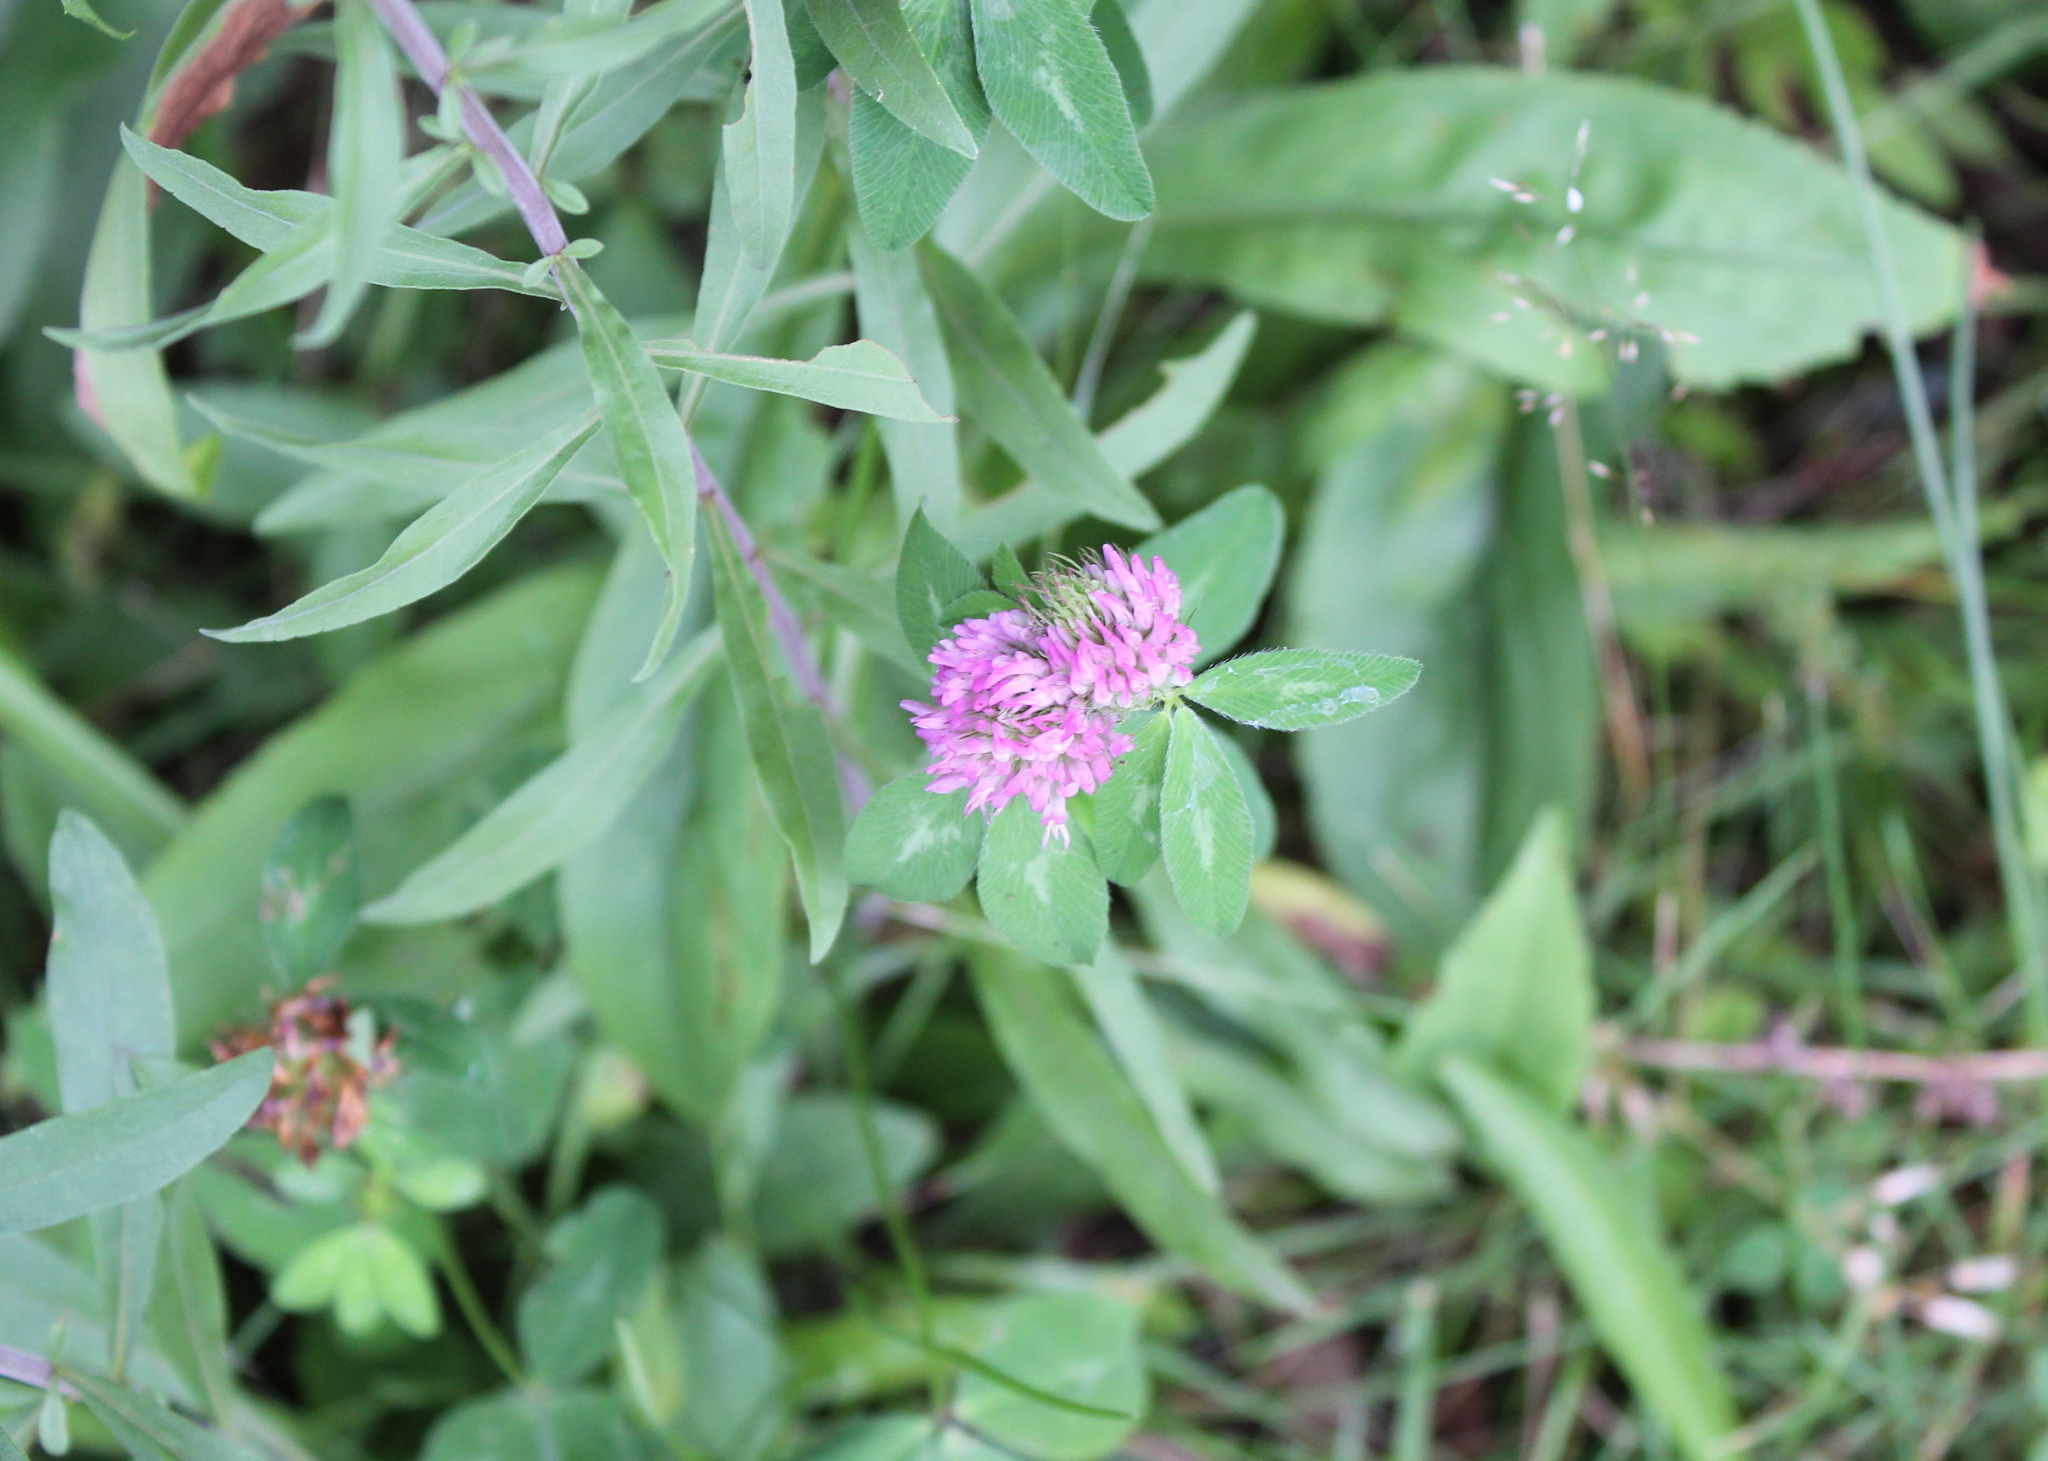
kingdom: Plantae
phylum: Tracheophyta
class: Magnoliopsida
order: Fabales
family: Fabaceae
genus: Trifolium
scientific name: Trifolium pratense
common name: Red clover
